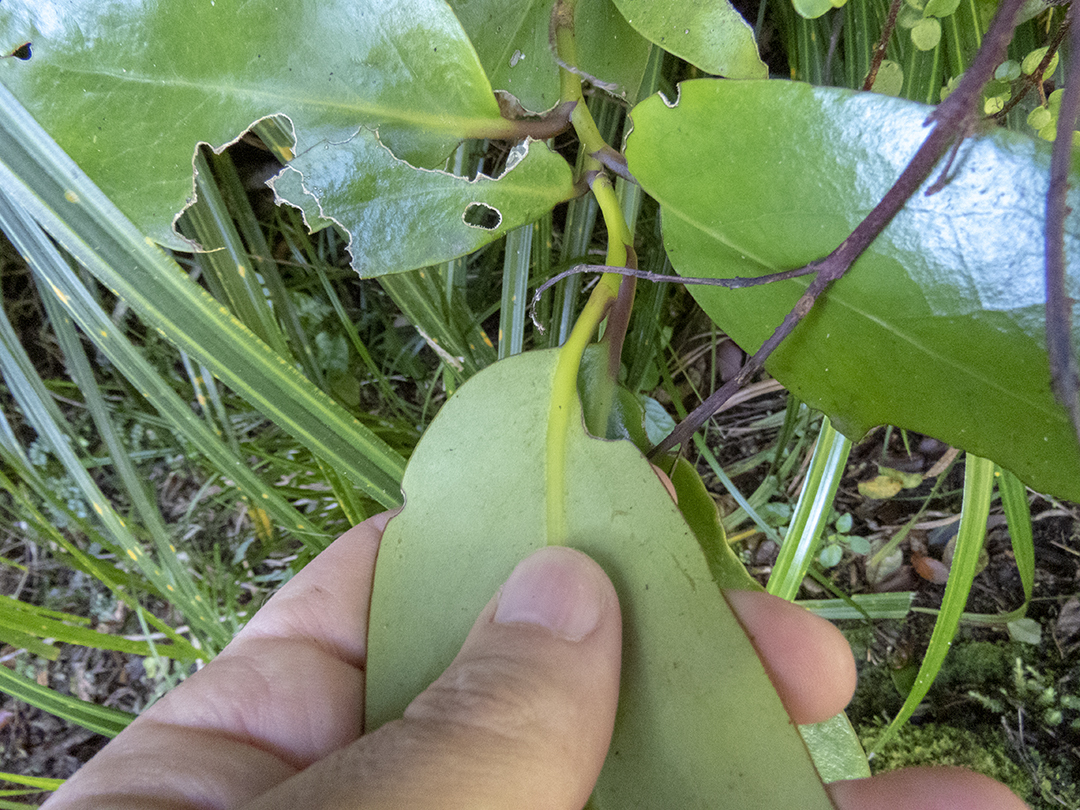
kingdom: Plantae
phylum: Tracheophyta
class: Magnoliopsida
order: Apiales
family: Griseliniaceae
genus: Griselinia
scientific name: Griselinia lucida
